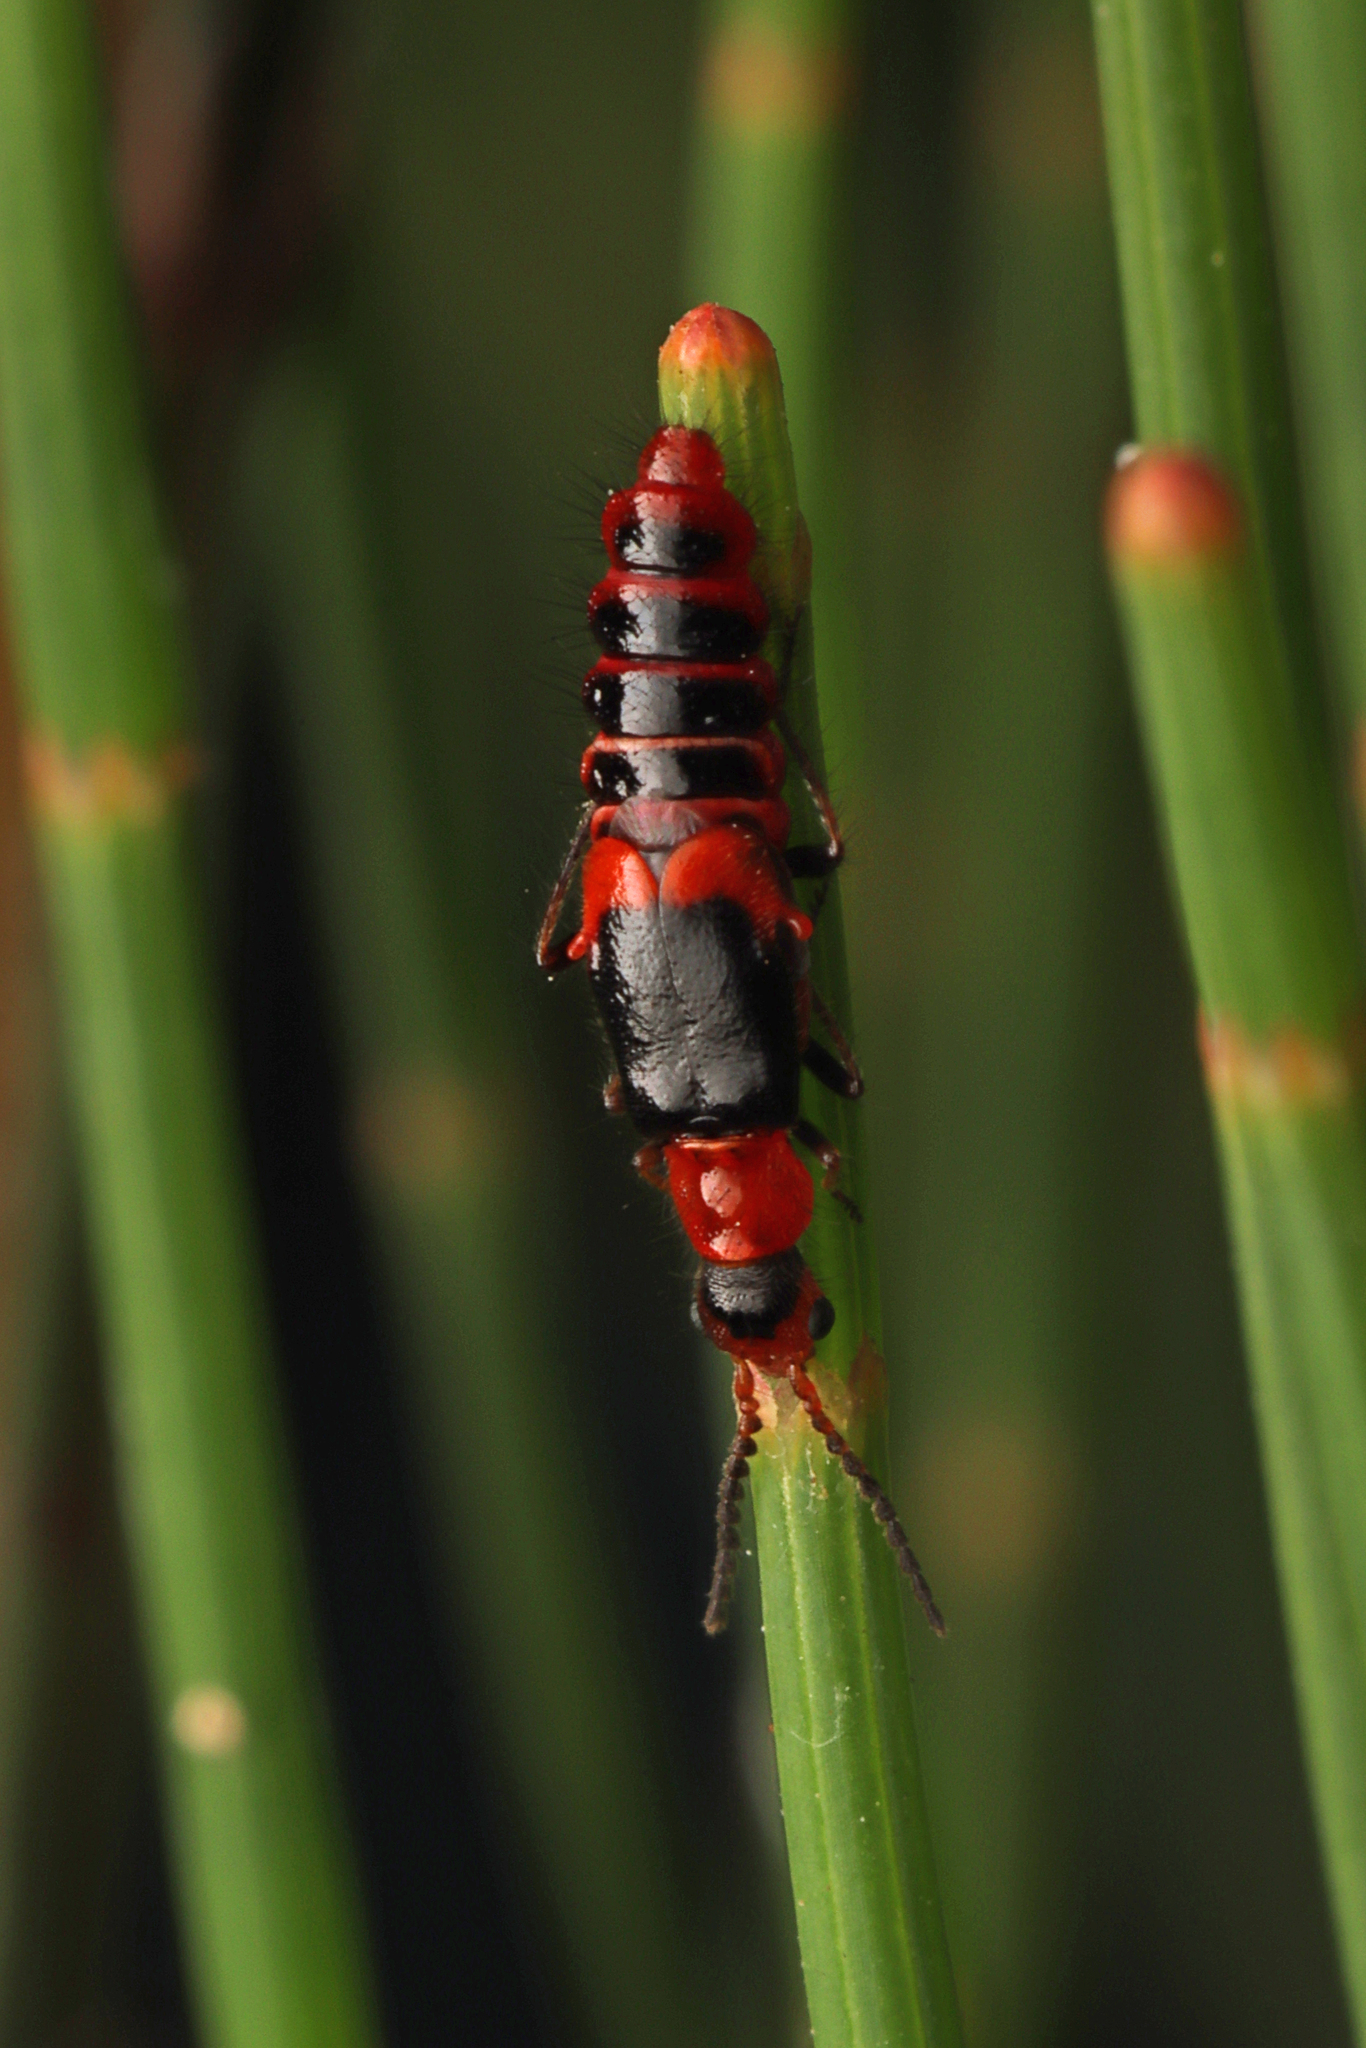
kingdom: Animalia
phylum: Arthropoda
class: Insecta
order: Coleoptera
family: Melyridae
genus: Carphurus
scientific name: Carphurus
